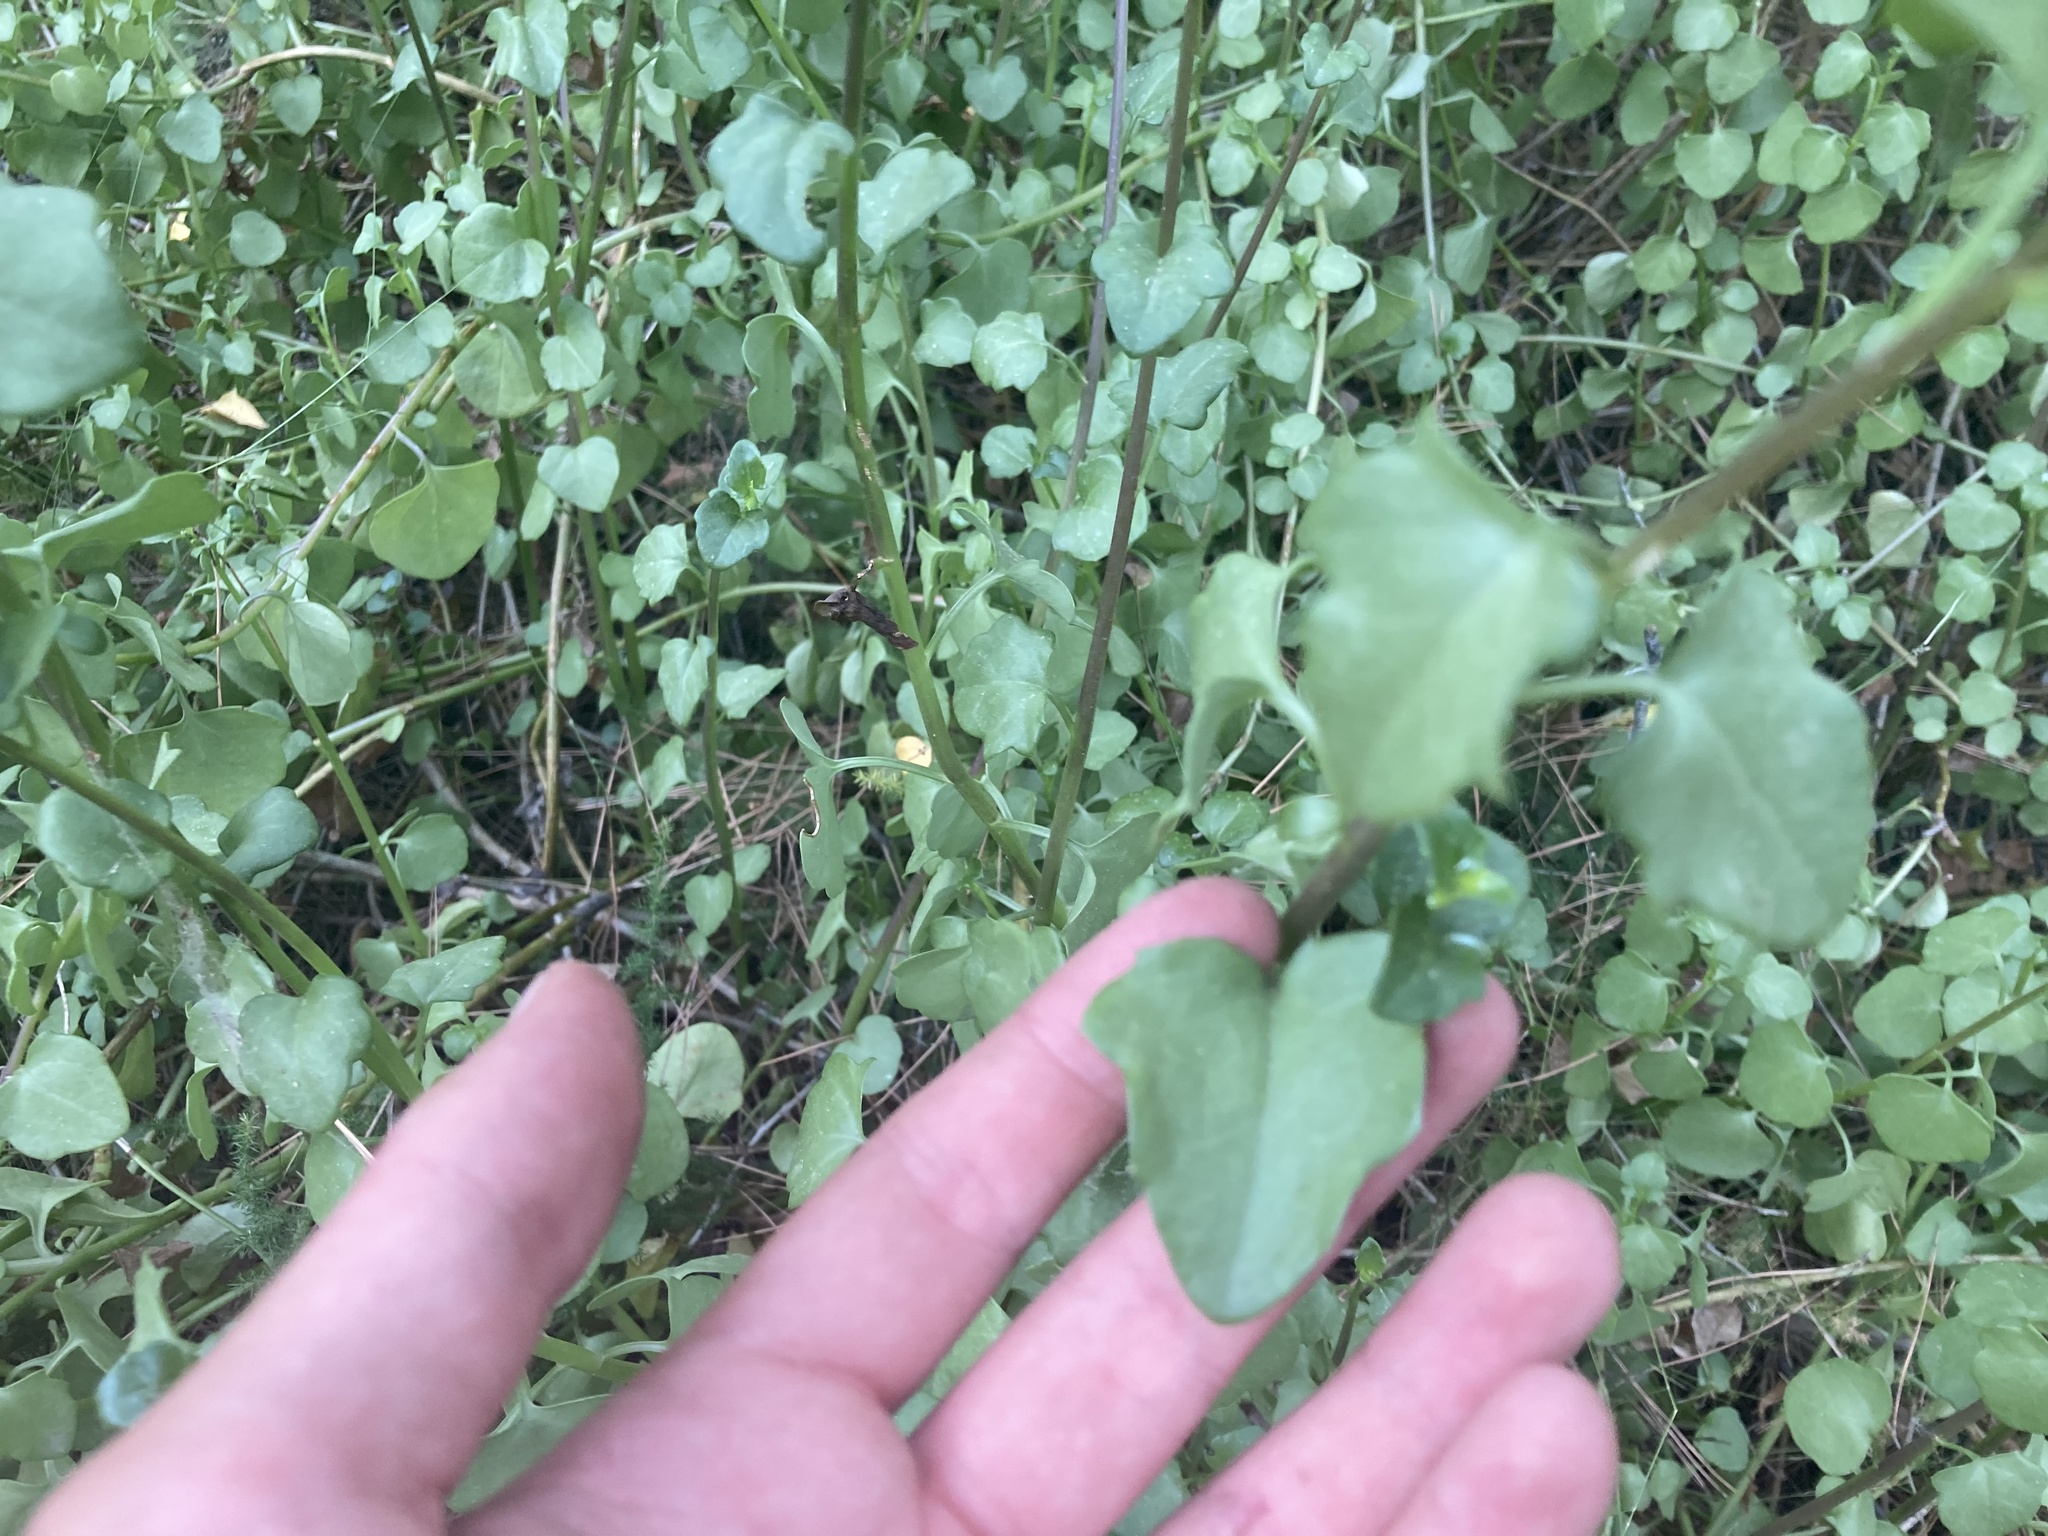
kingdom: Plantae
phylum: Tracheophyta
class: Magnoliopsida
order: Asterales
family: Asteraceae
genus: Senecio
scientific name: Senecio angulatus
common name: Climbing groundsel
